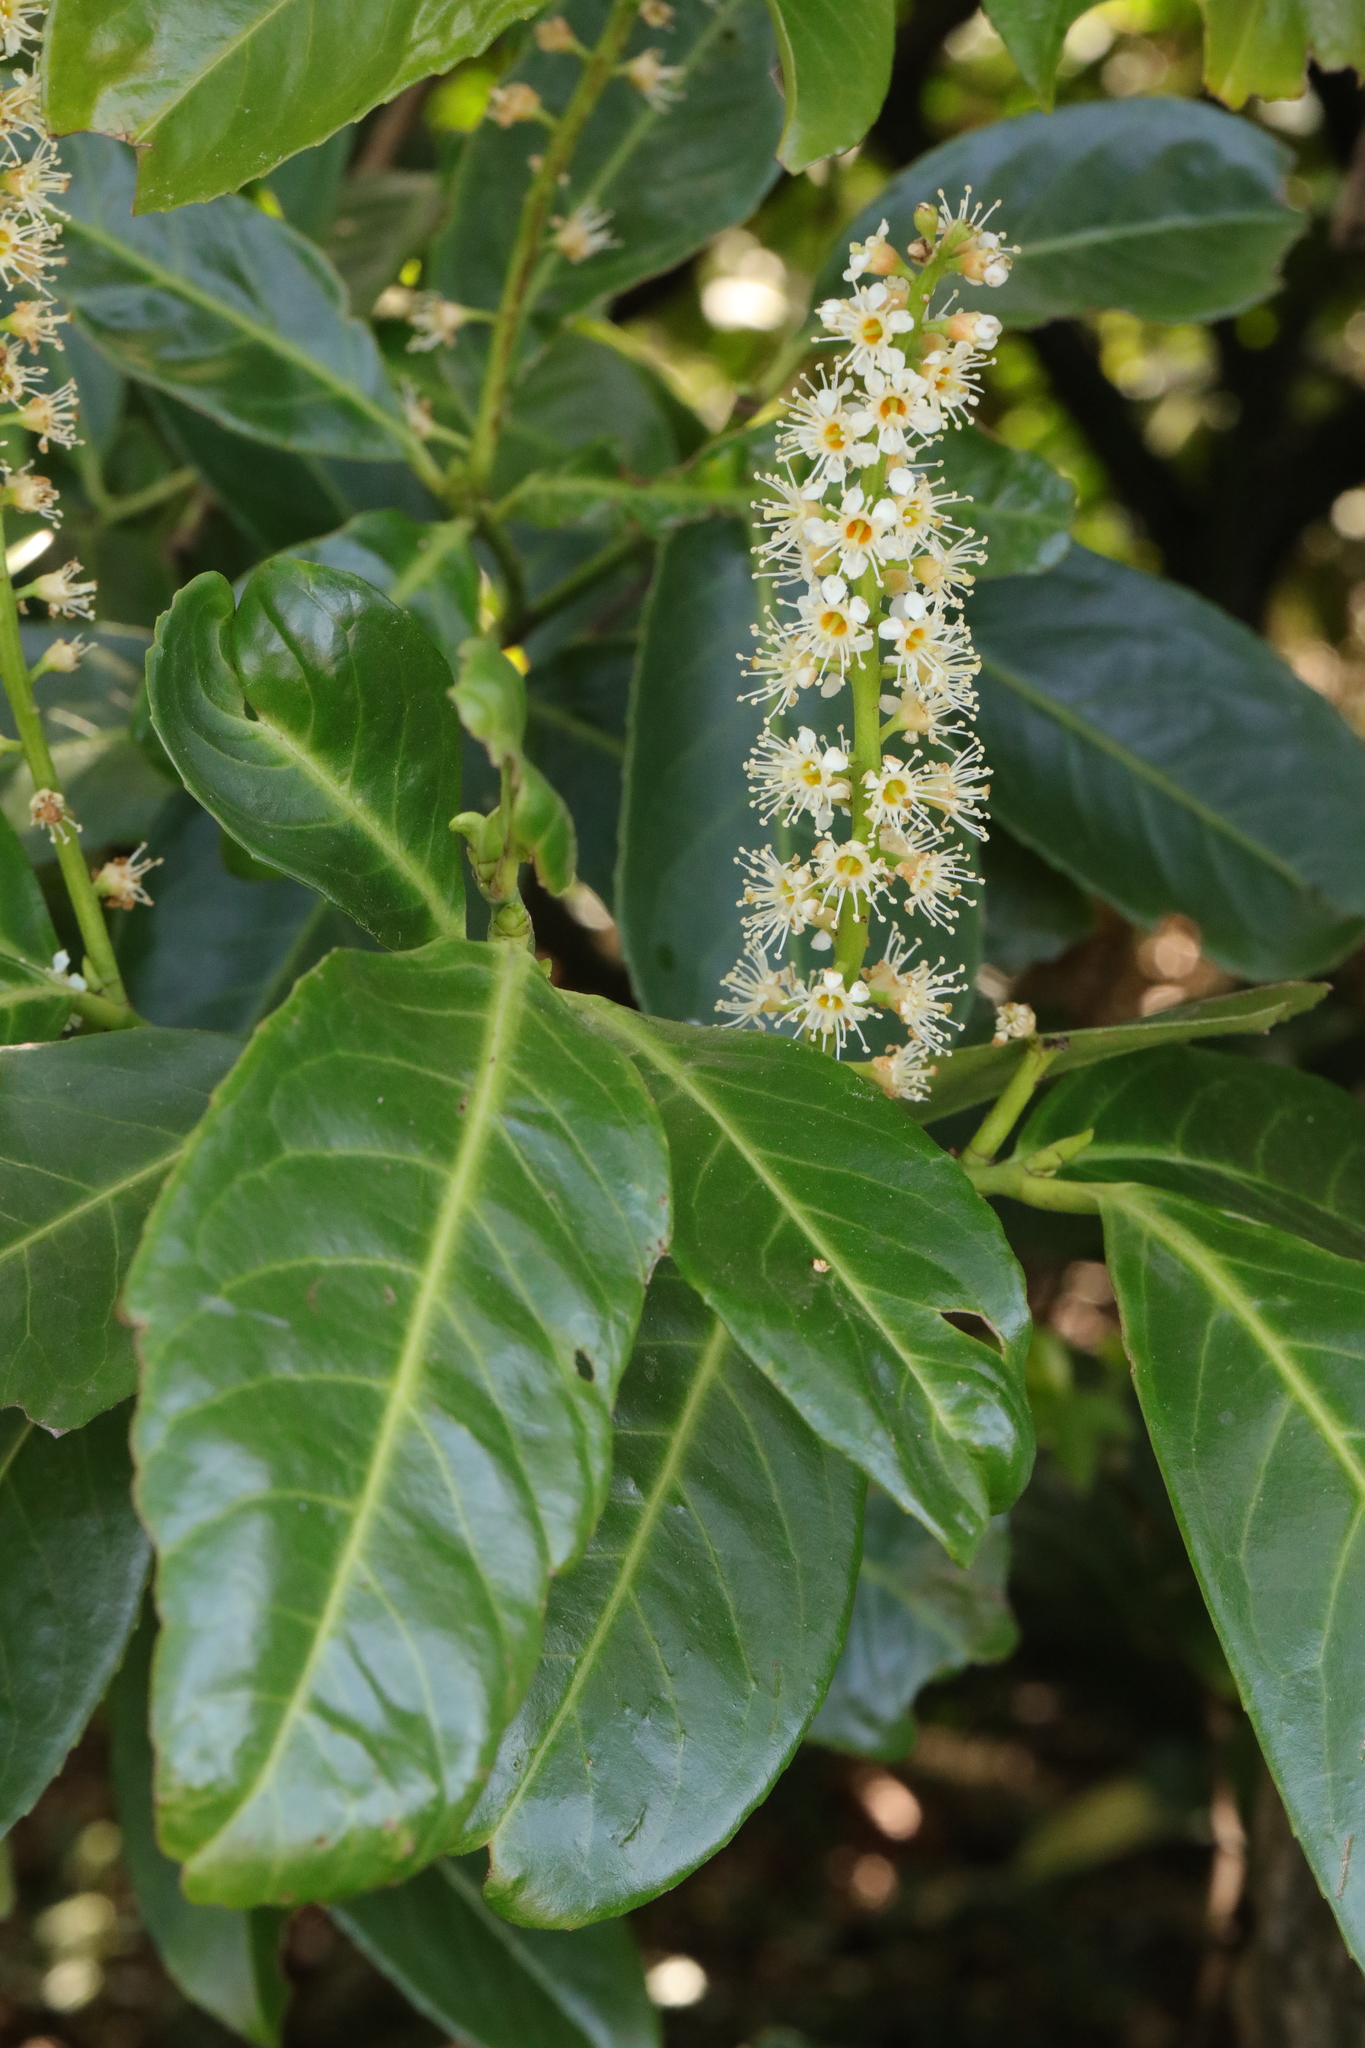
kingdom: Plantae
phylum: Tracheophyta
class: Magnoliopsida
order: Rosales
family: Rosaceae
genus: Prunus
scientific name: Prunus laurocerasus
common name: Cherry laurel
